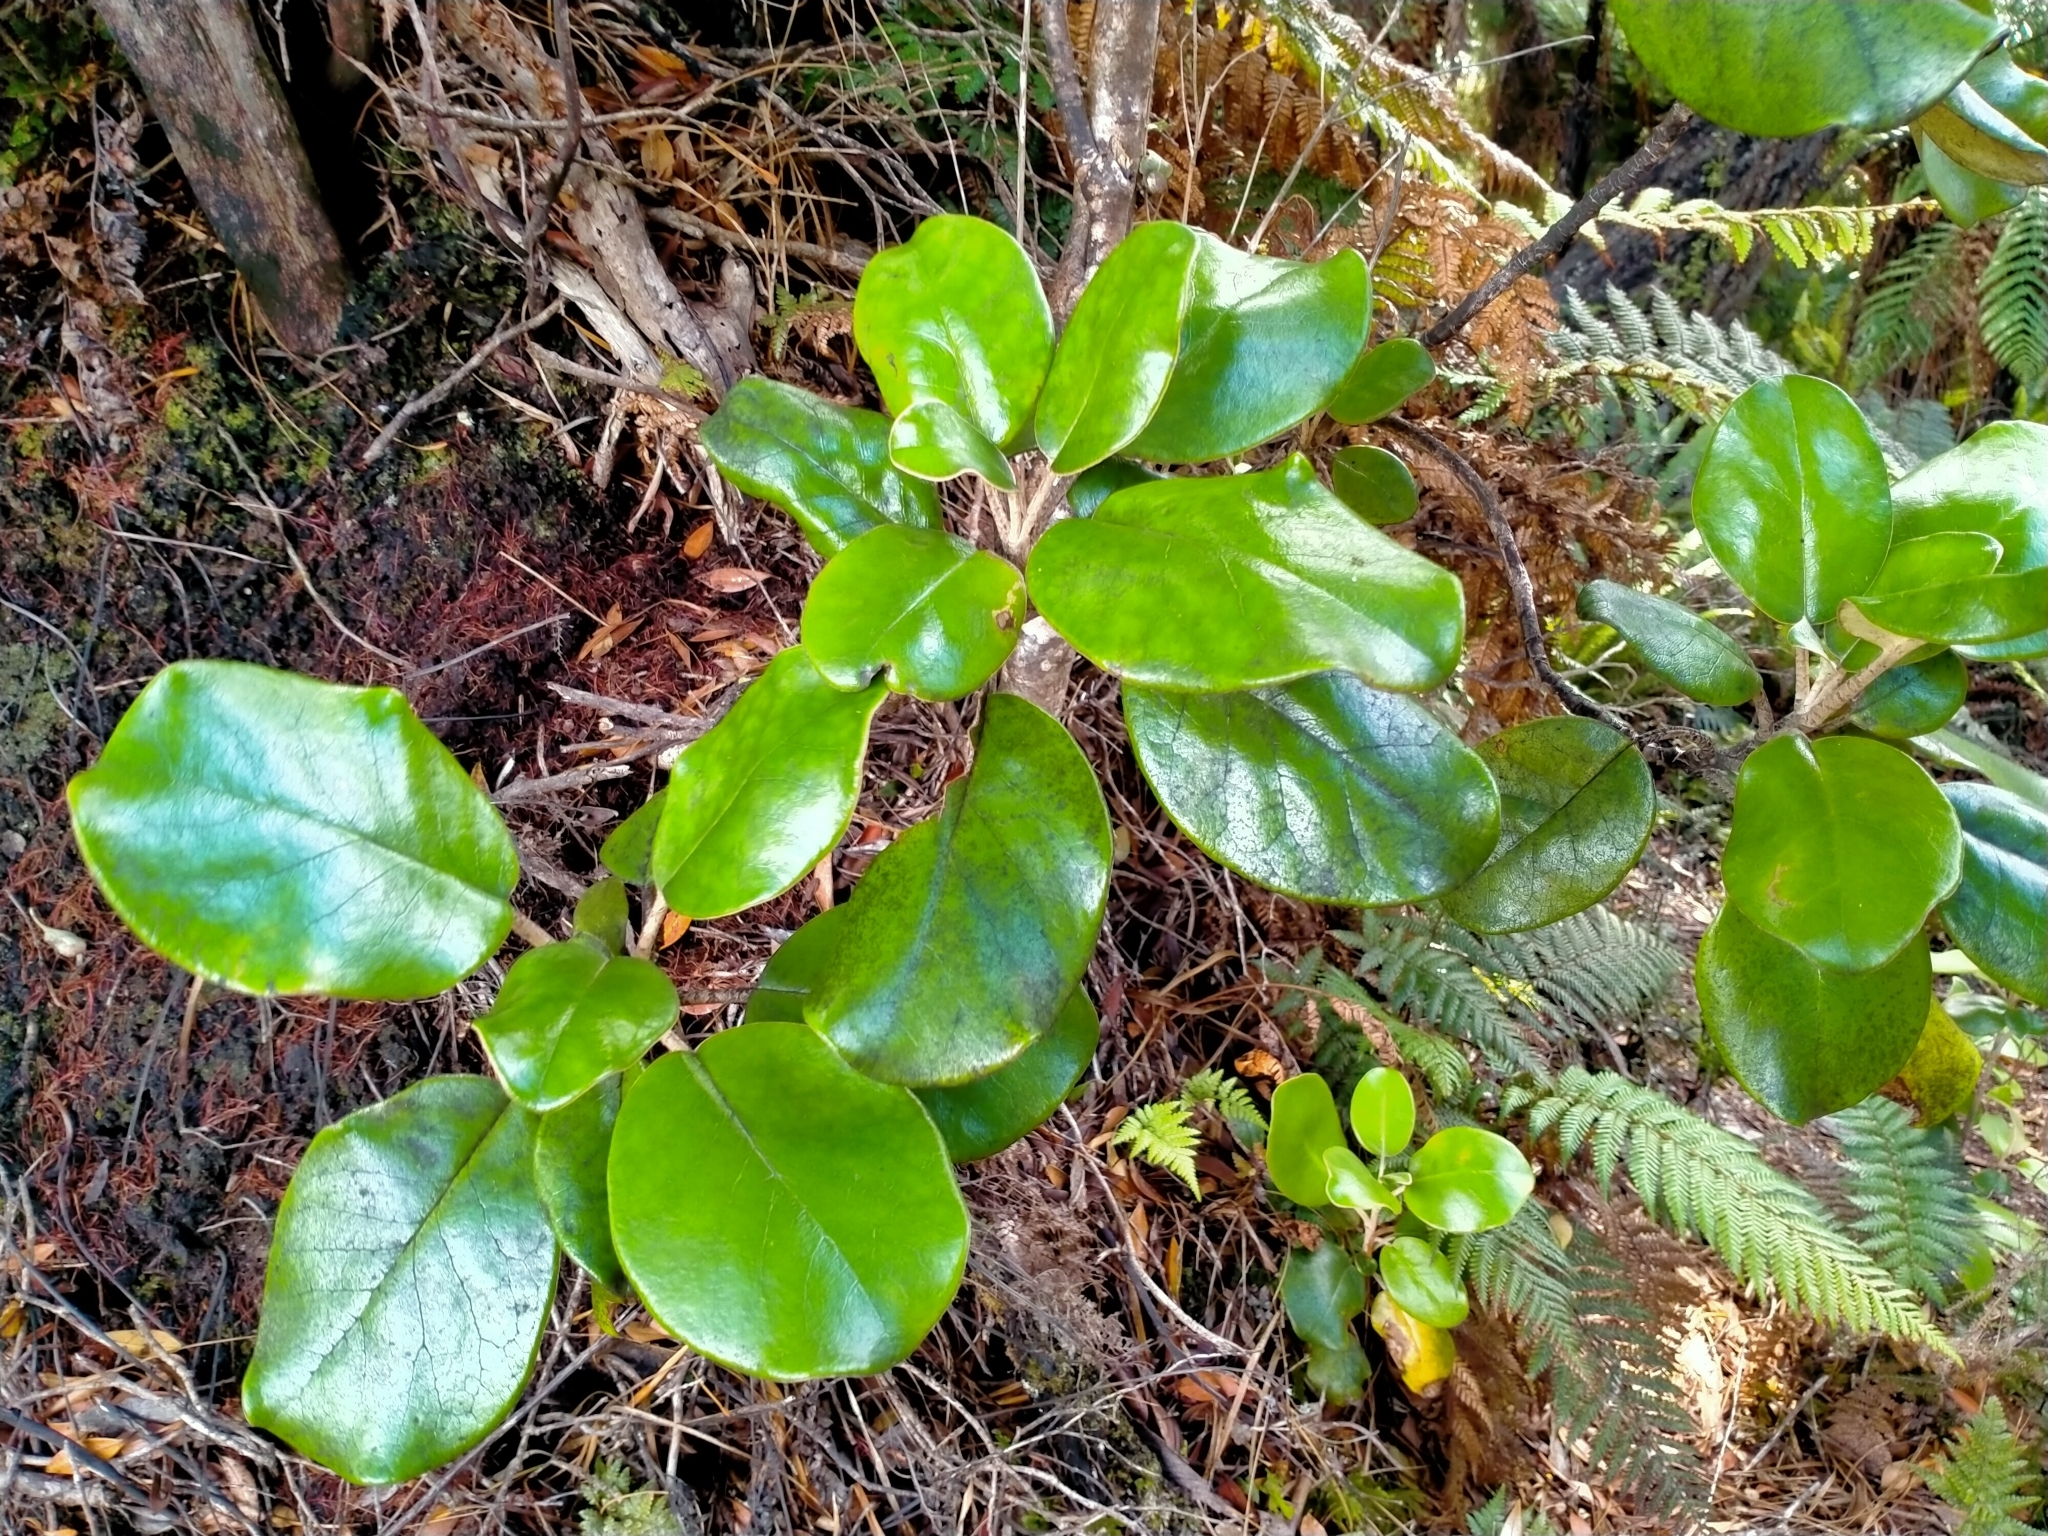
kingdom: Plantae
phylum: Tracheophyta
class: Magnoliopsida
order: Asterales
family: Asteraceae
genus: Brachyglottis
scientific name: Brachyglottis rotundifolia
